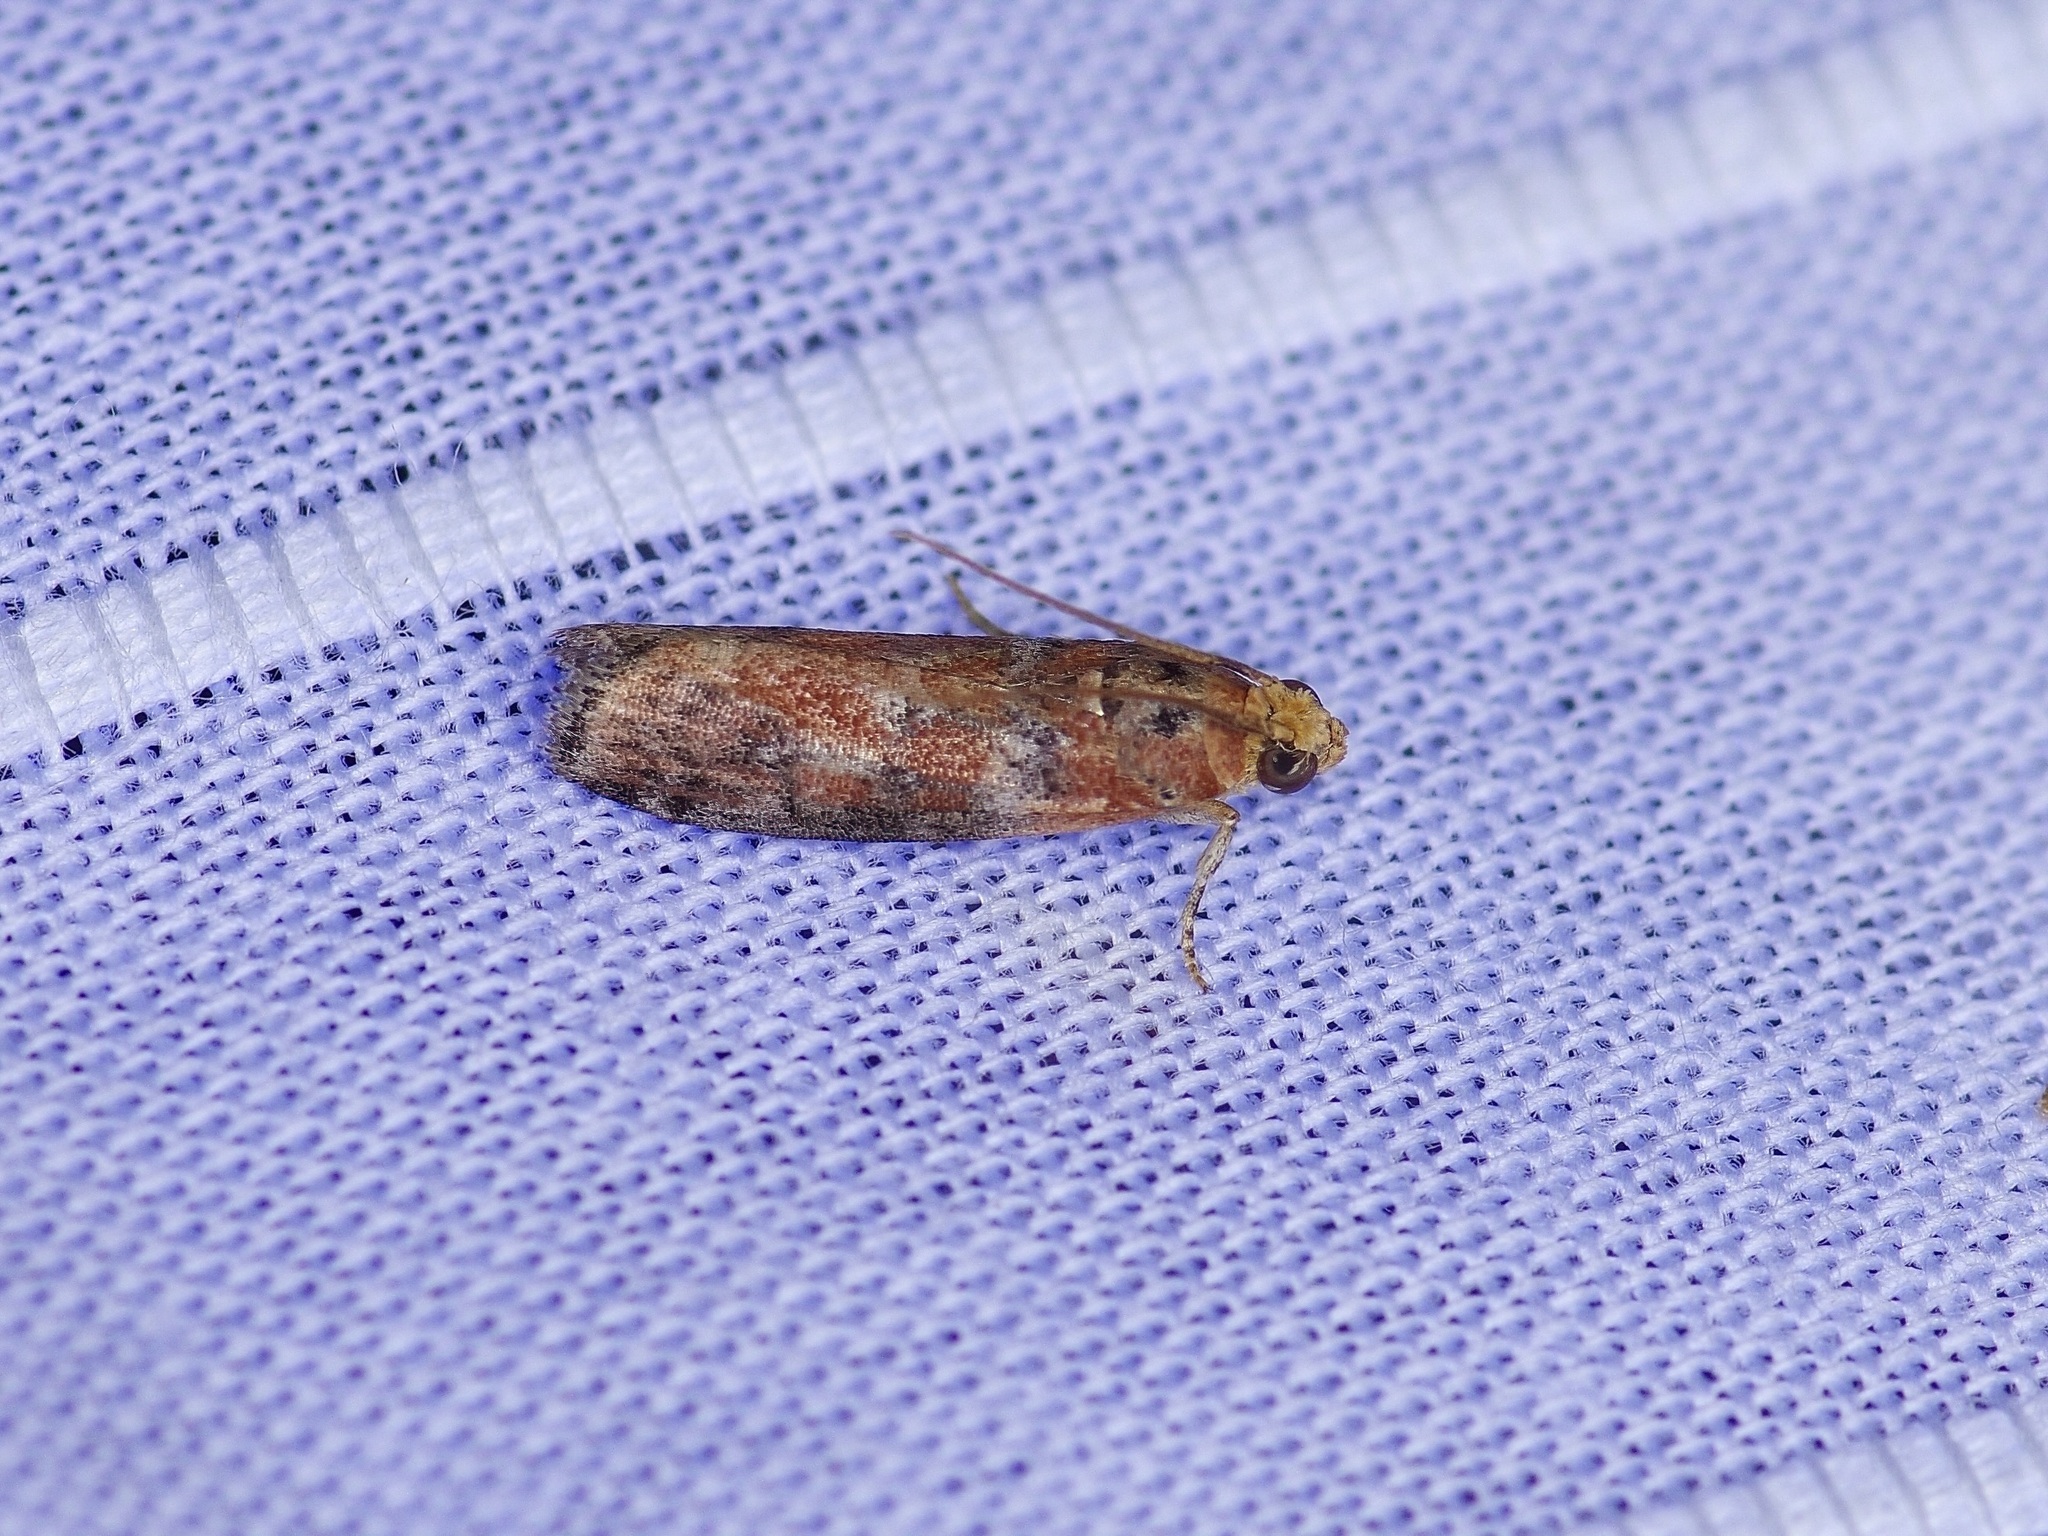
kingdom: Animalia
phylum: Arthropoda
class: Insecta
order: Lepidoptera
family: Pyralidae
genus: Sciota
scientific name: Sciota
